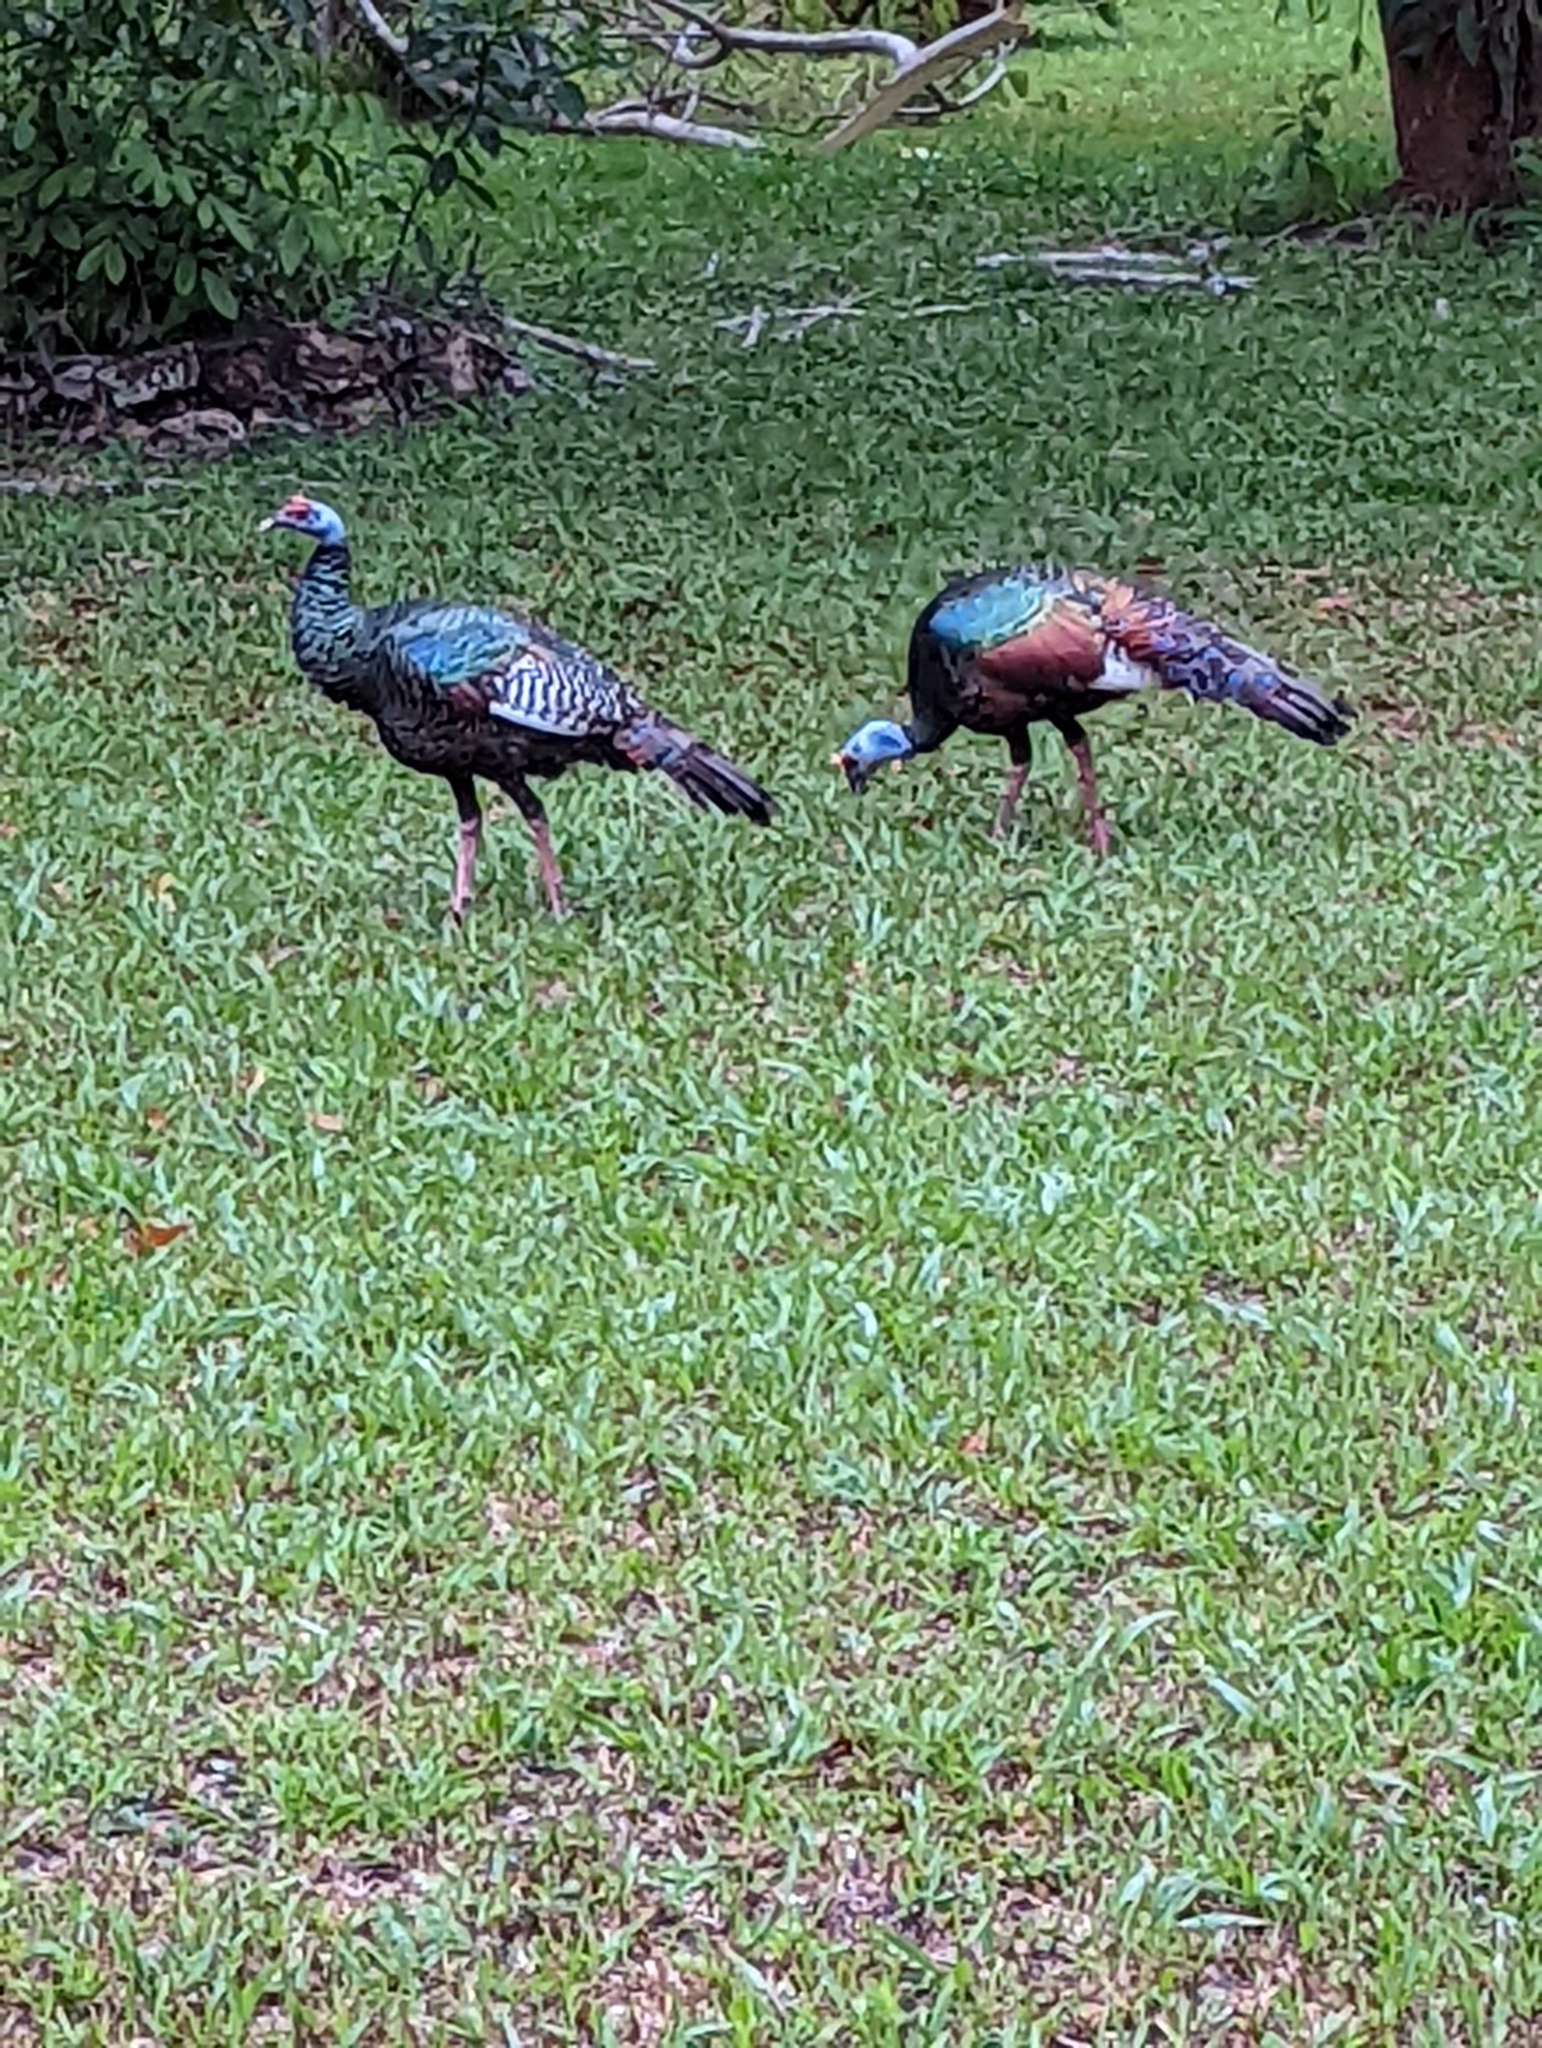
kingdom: Animalia
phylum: Chordata
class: Aves
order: Galliformes
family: Phasianidae
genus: Meleagris
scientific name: Meleagris ocellata
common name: Ocellated turkey
